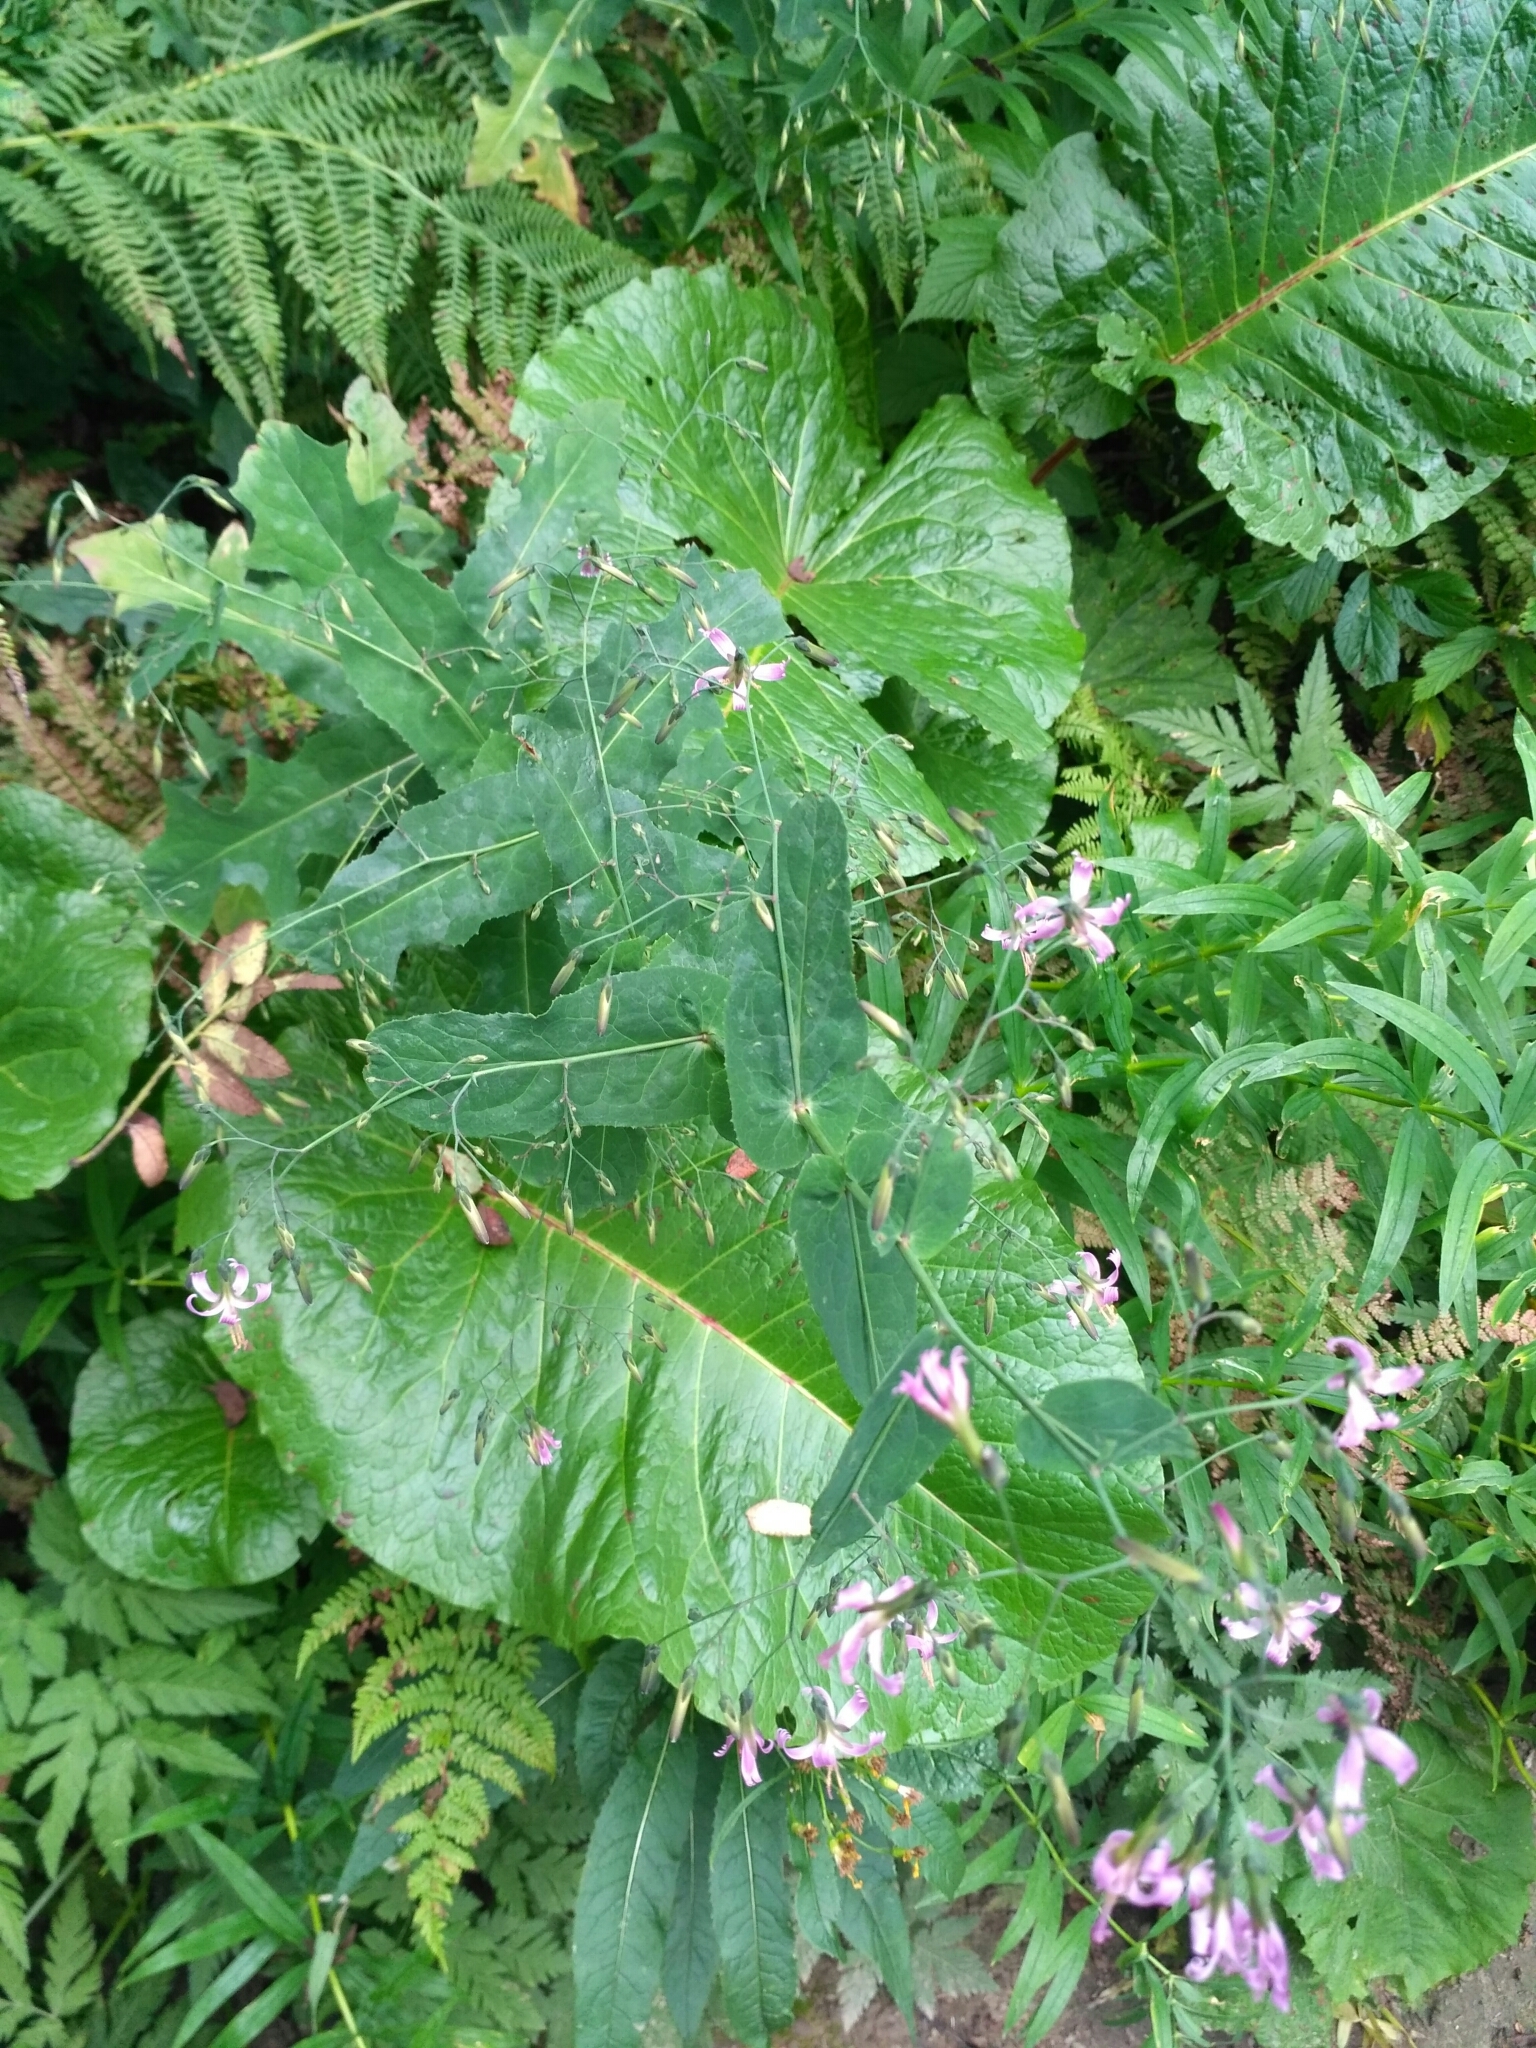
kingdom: Plantae
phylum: Tracheophyta
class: Magnoliopsida
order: Asterales
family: Asteraceae
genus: Prenanthes
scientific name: Prenanthes purpurea
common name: Purple lettuce
